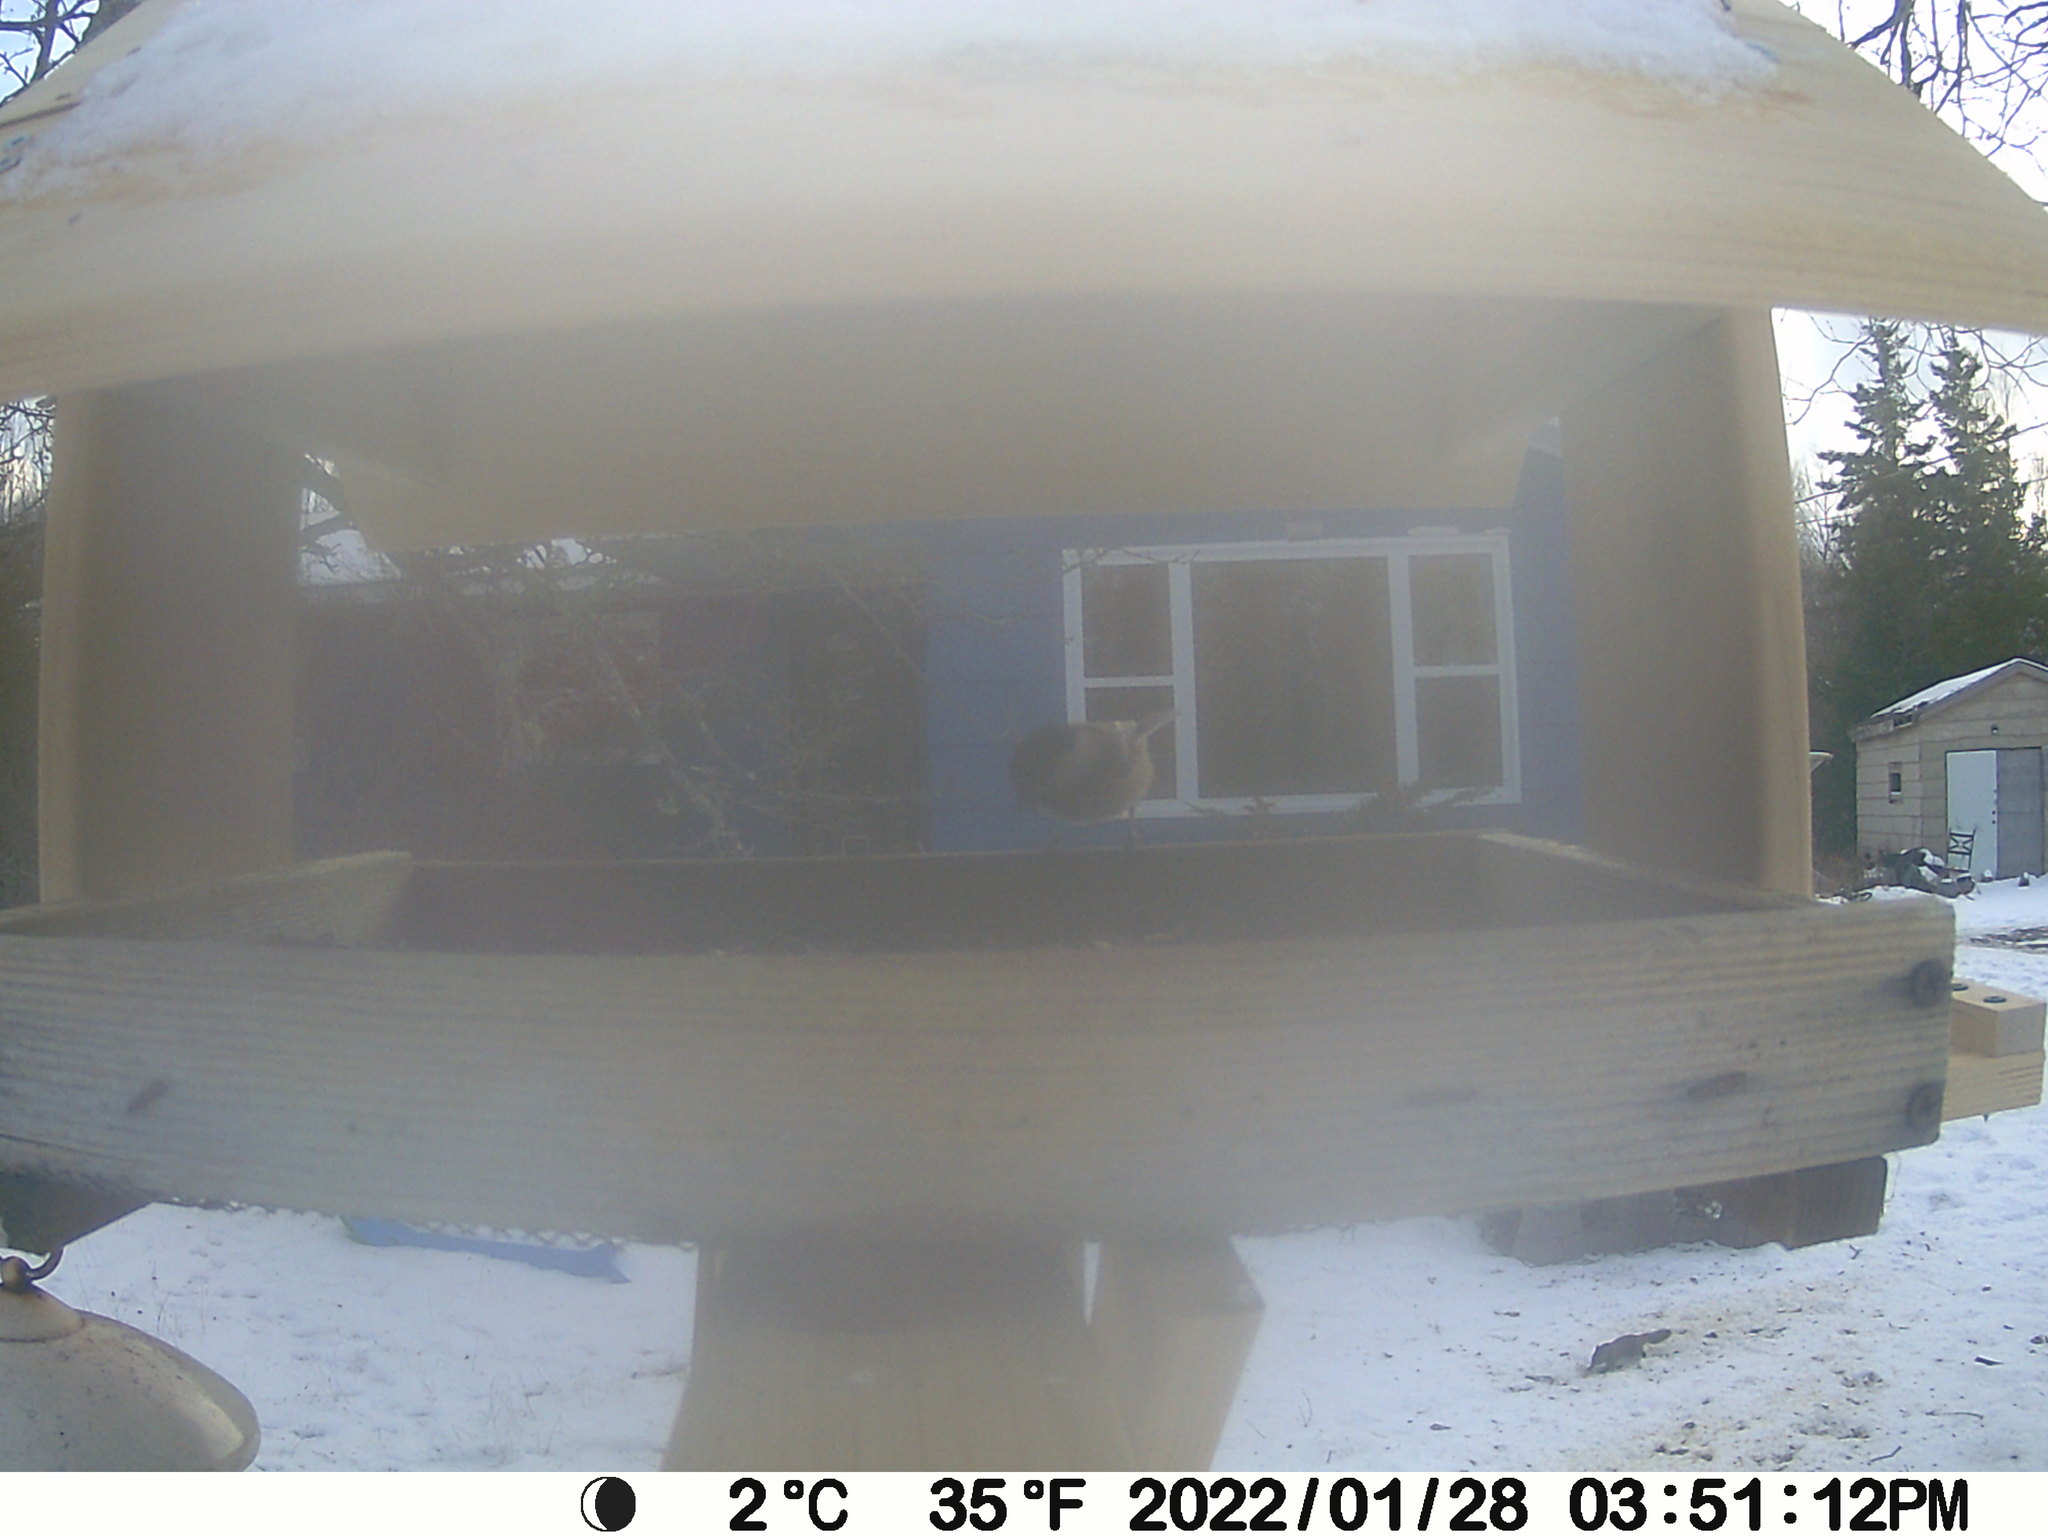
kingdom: Animalia
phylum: Chordata
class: Mammalia
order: Rodentia
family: Sciuridae
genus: Tamiasciurus
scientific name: Tamiasciurus hudsonicus
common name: Red squirrel
